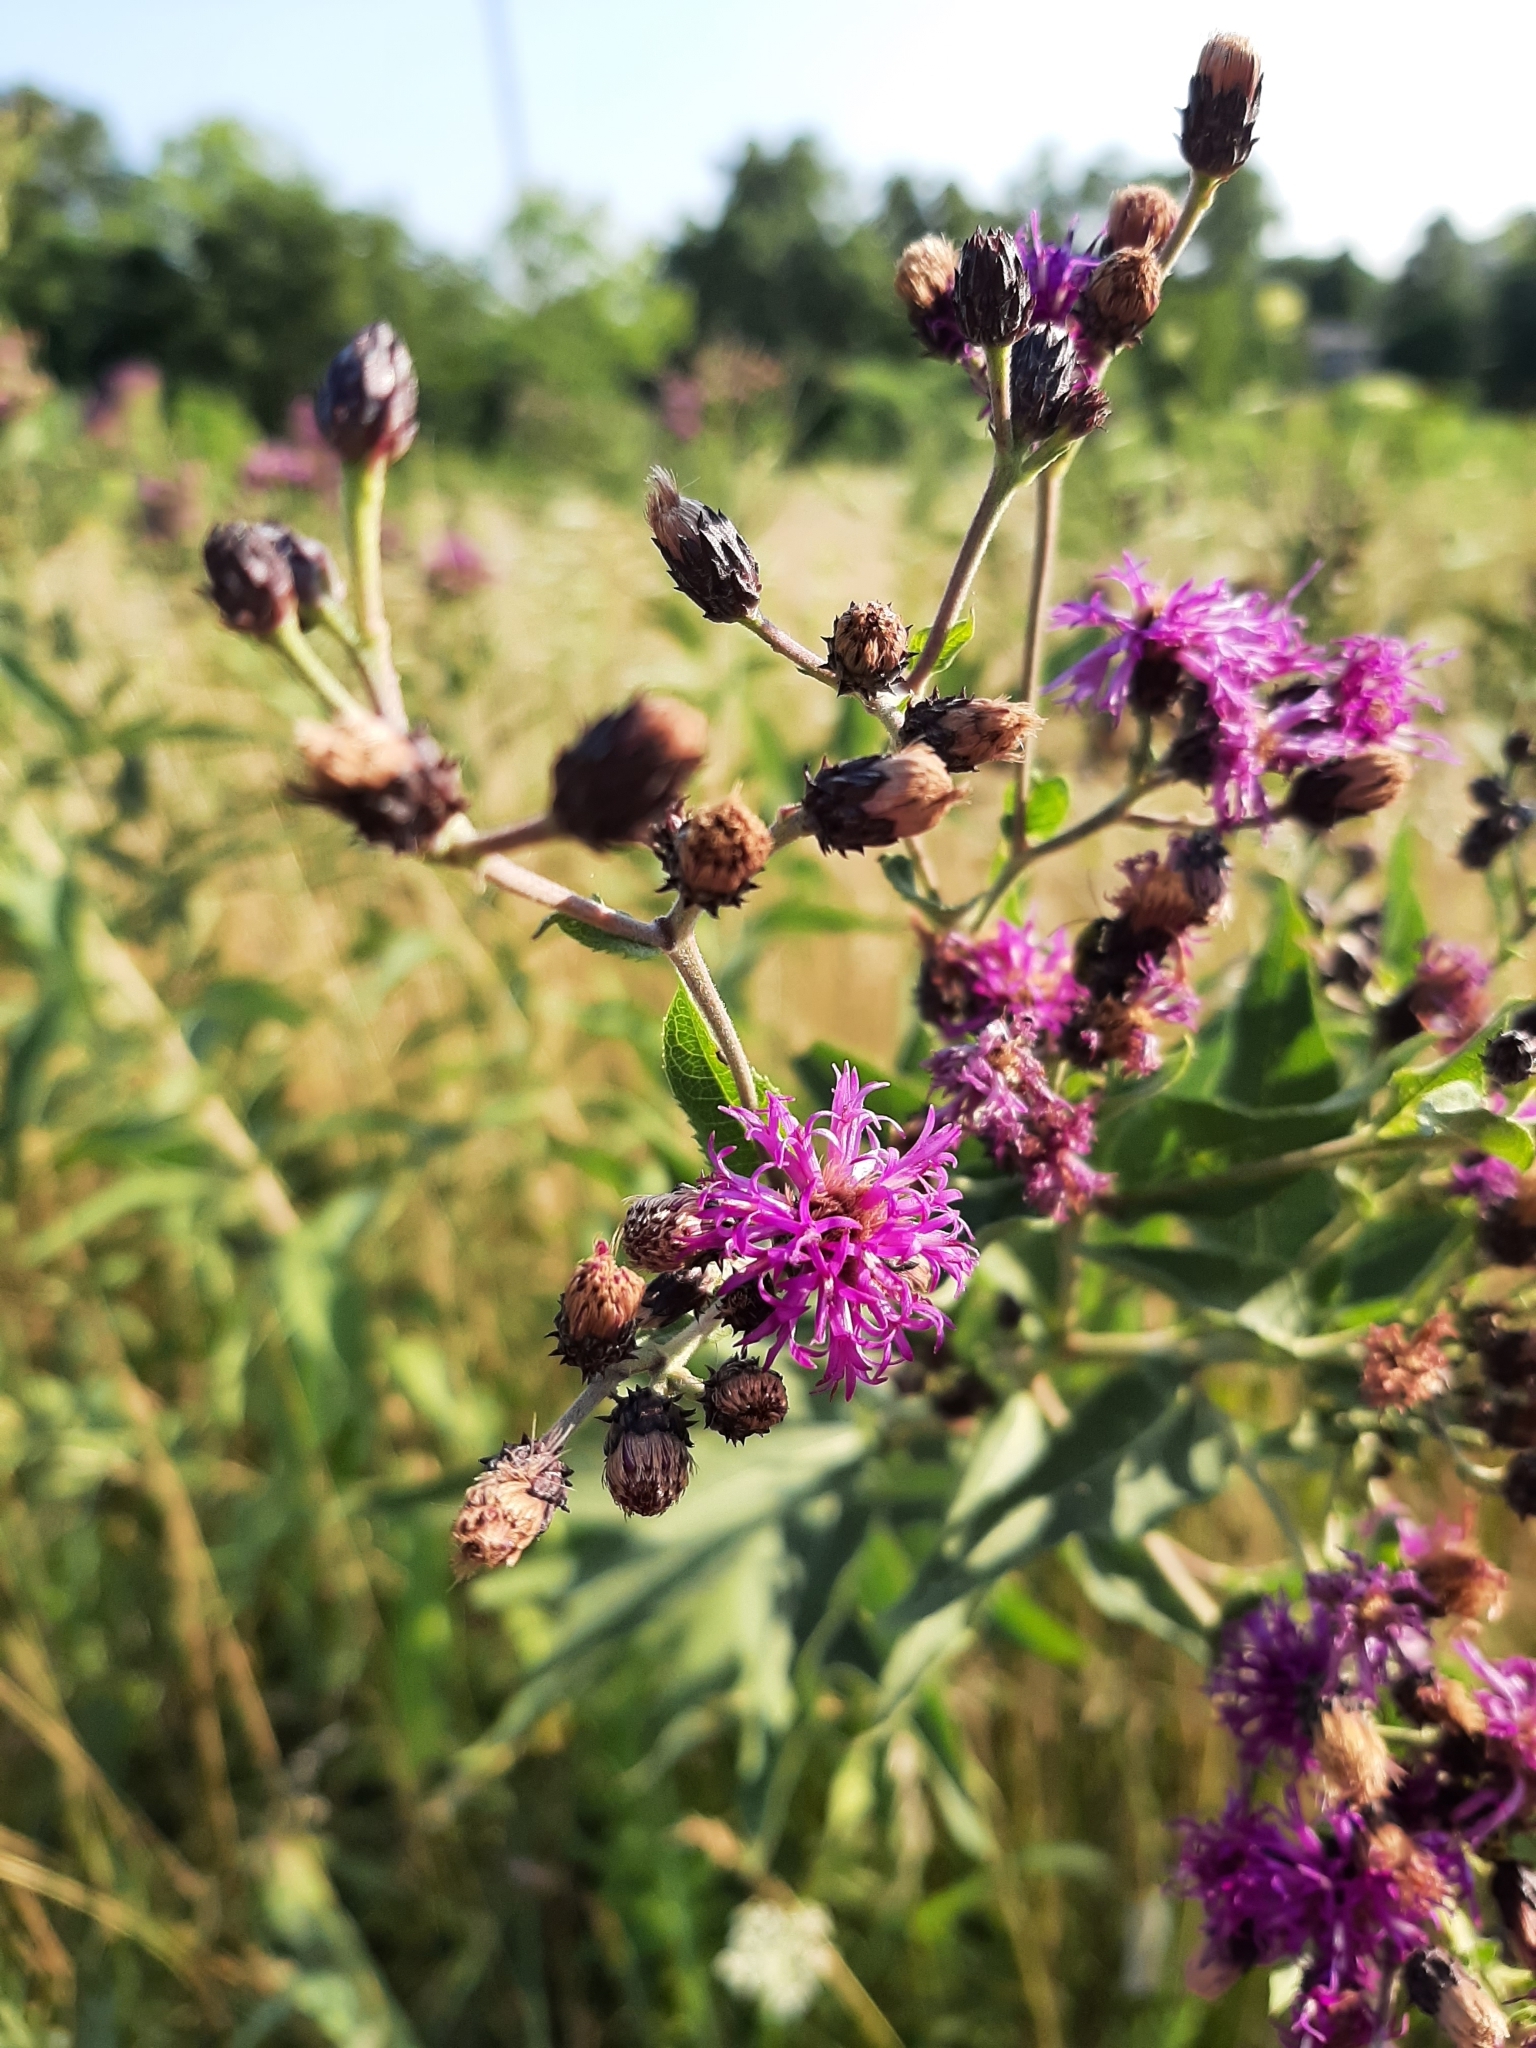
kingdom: Plantae
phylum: Tracheophyta
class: Magnoliopsida
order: Asterales
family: Asteraceae
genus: Vernonia
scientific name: Vernonia baldwinii
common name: Western ironweed
